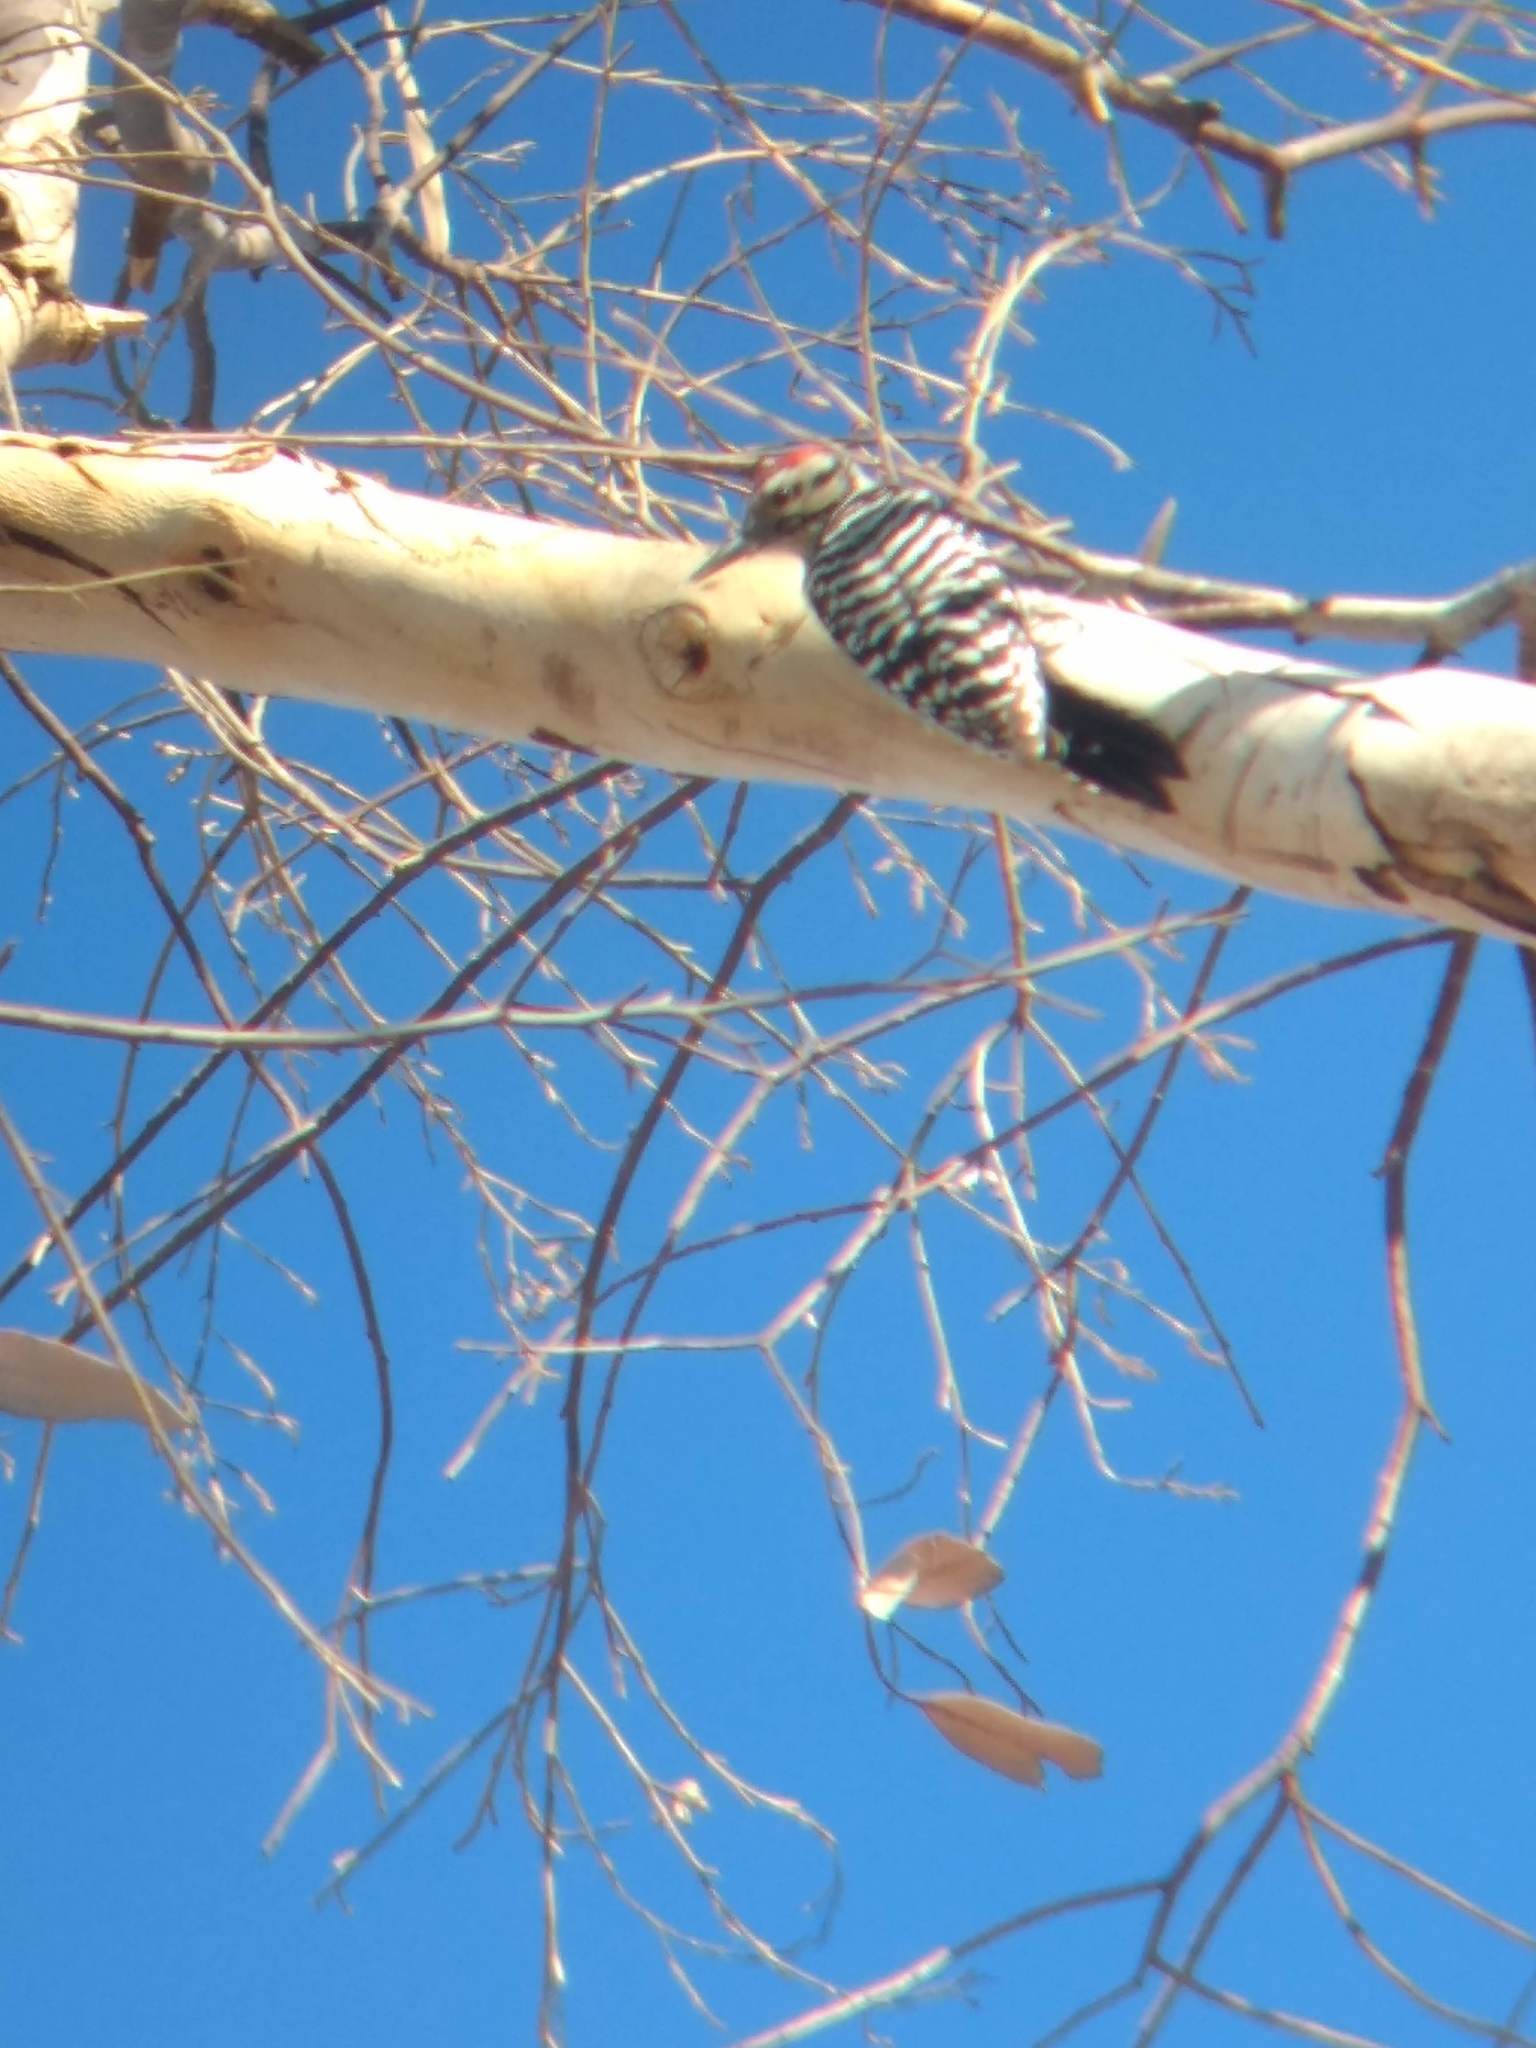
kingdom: Animalia
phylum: Chordata
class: Aves
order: Piciformes
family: Picidae
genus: Dryobates
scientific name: Dryobates scalaris
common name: Ladder-backed woodpecker
